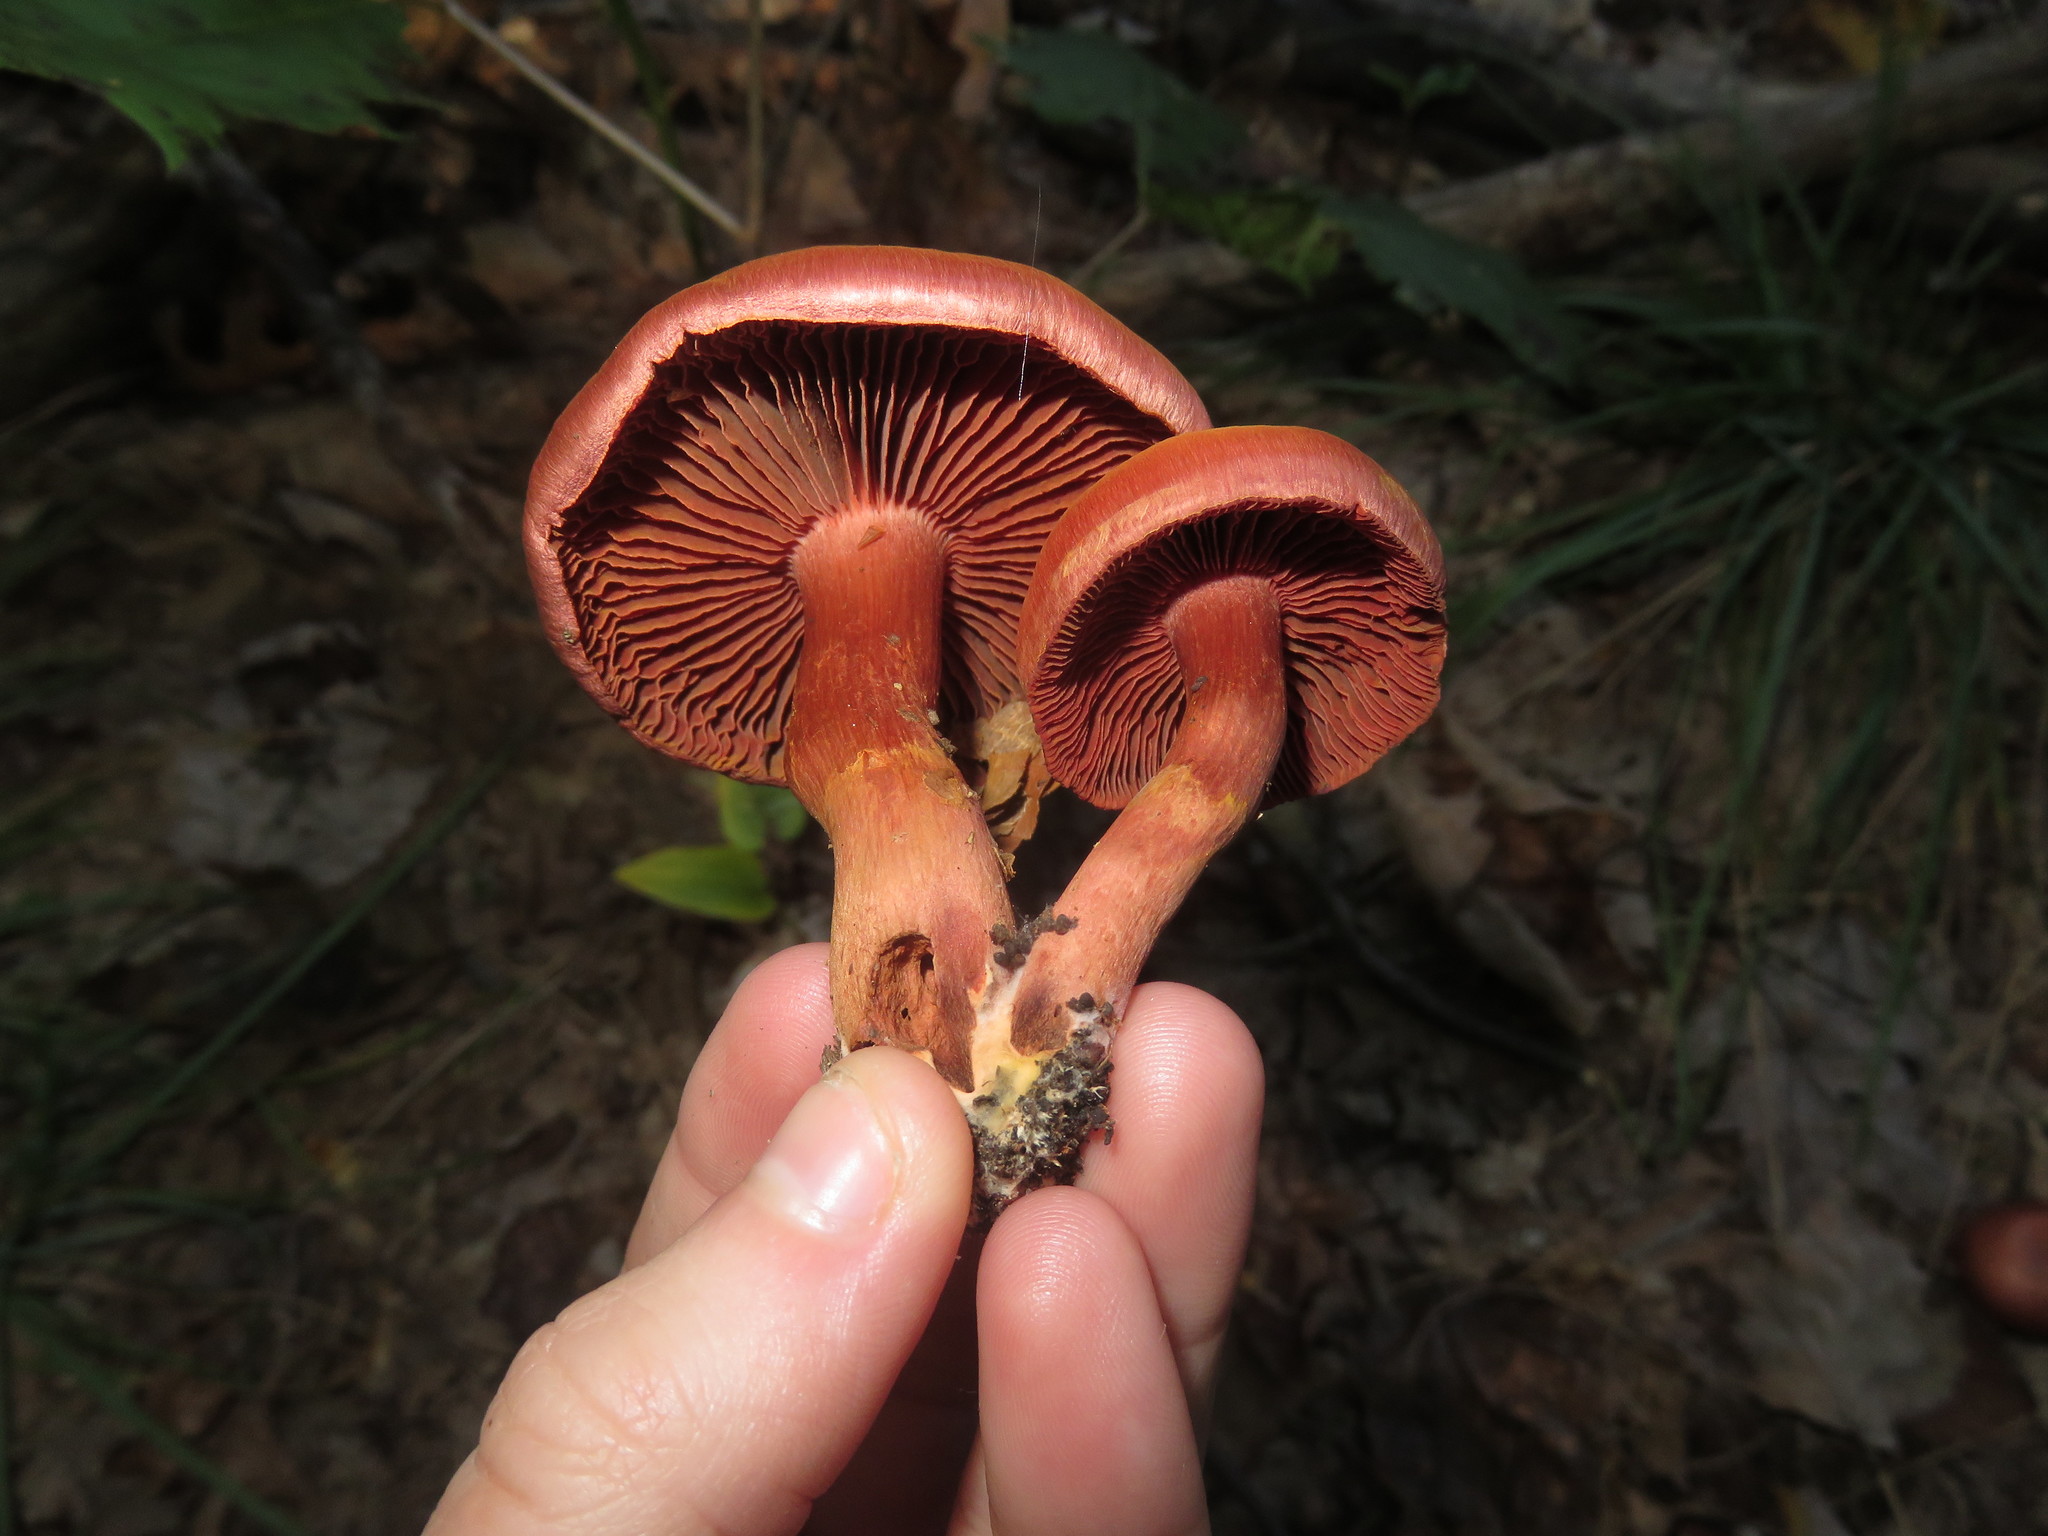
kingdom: Fungi
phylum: Basidiomycota
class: Agaricomycetes
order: Agaricales
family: Cortinariaceae
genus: Cortinarius
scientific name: Cortinarius marylandensis
